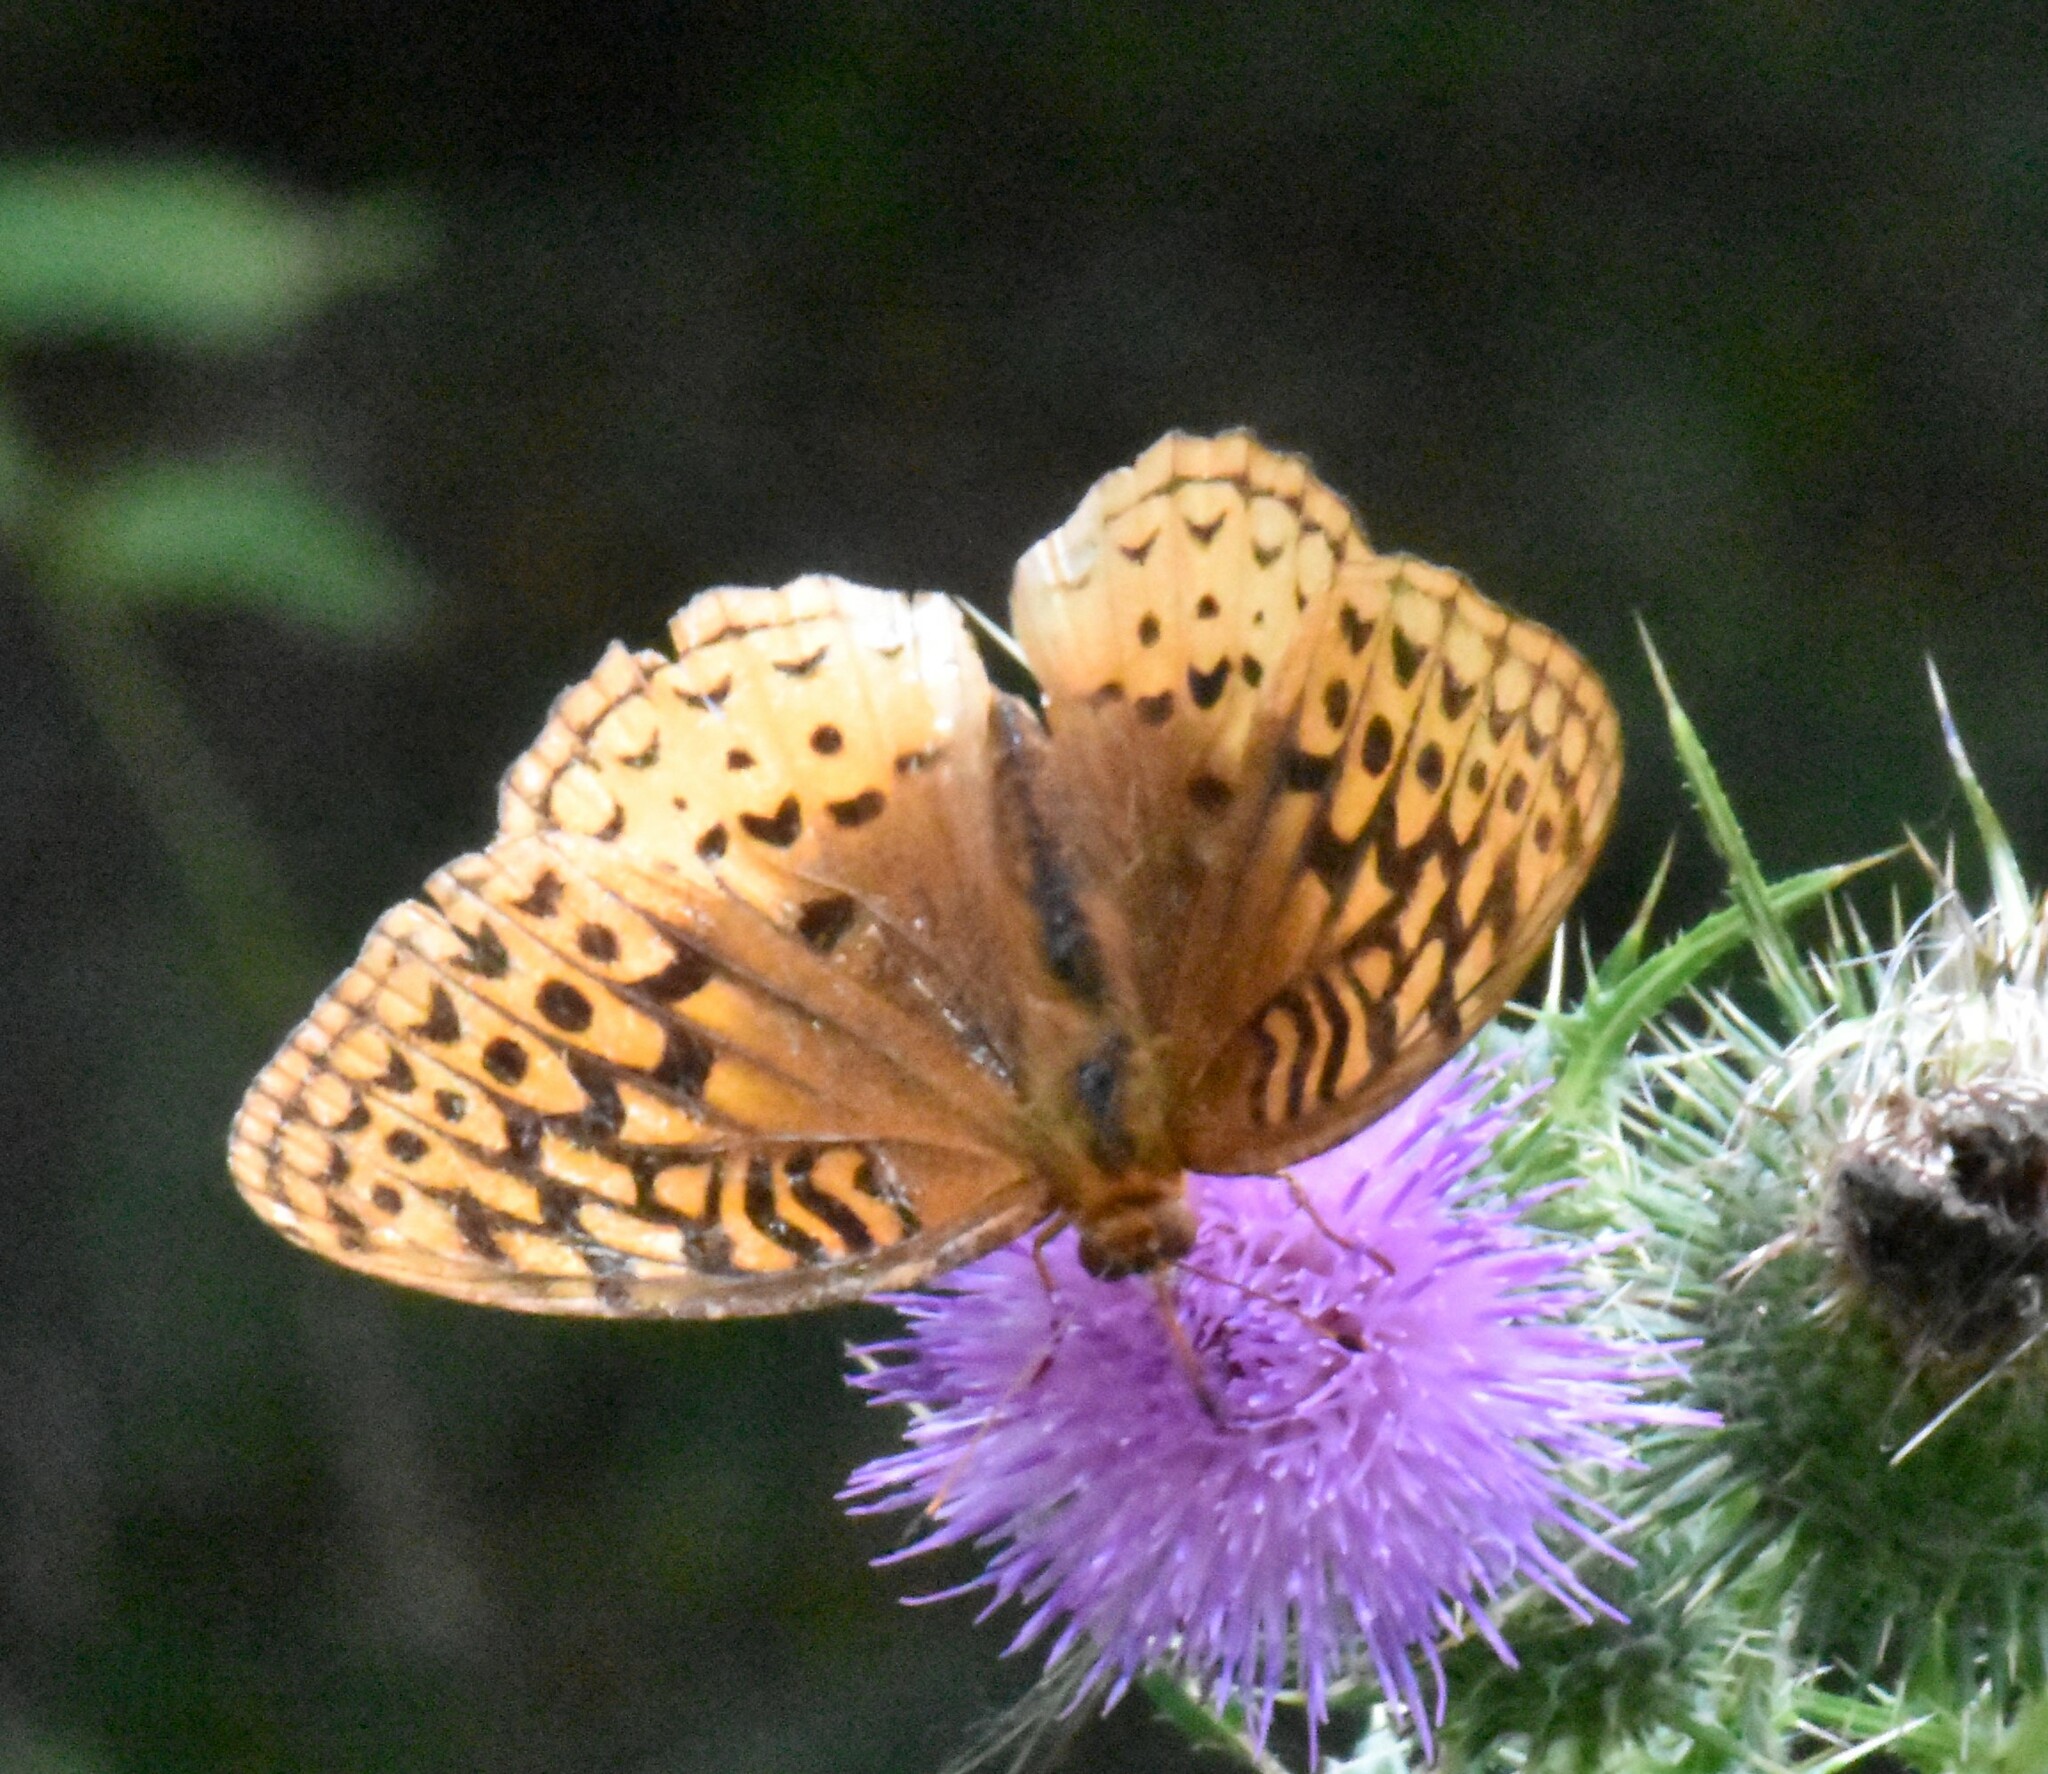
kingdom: Animalia
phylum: Arthropoda
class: Insecta
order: Lepidoptera
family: Nymphalidae
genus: Speyeria
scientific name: Speyeria cybele
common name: Great spangled fritillary
